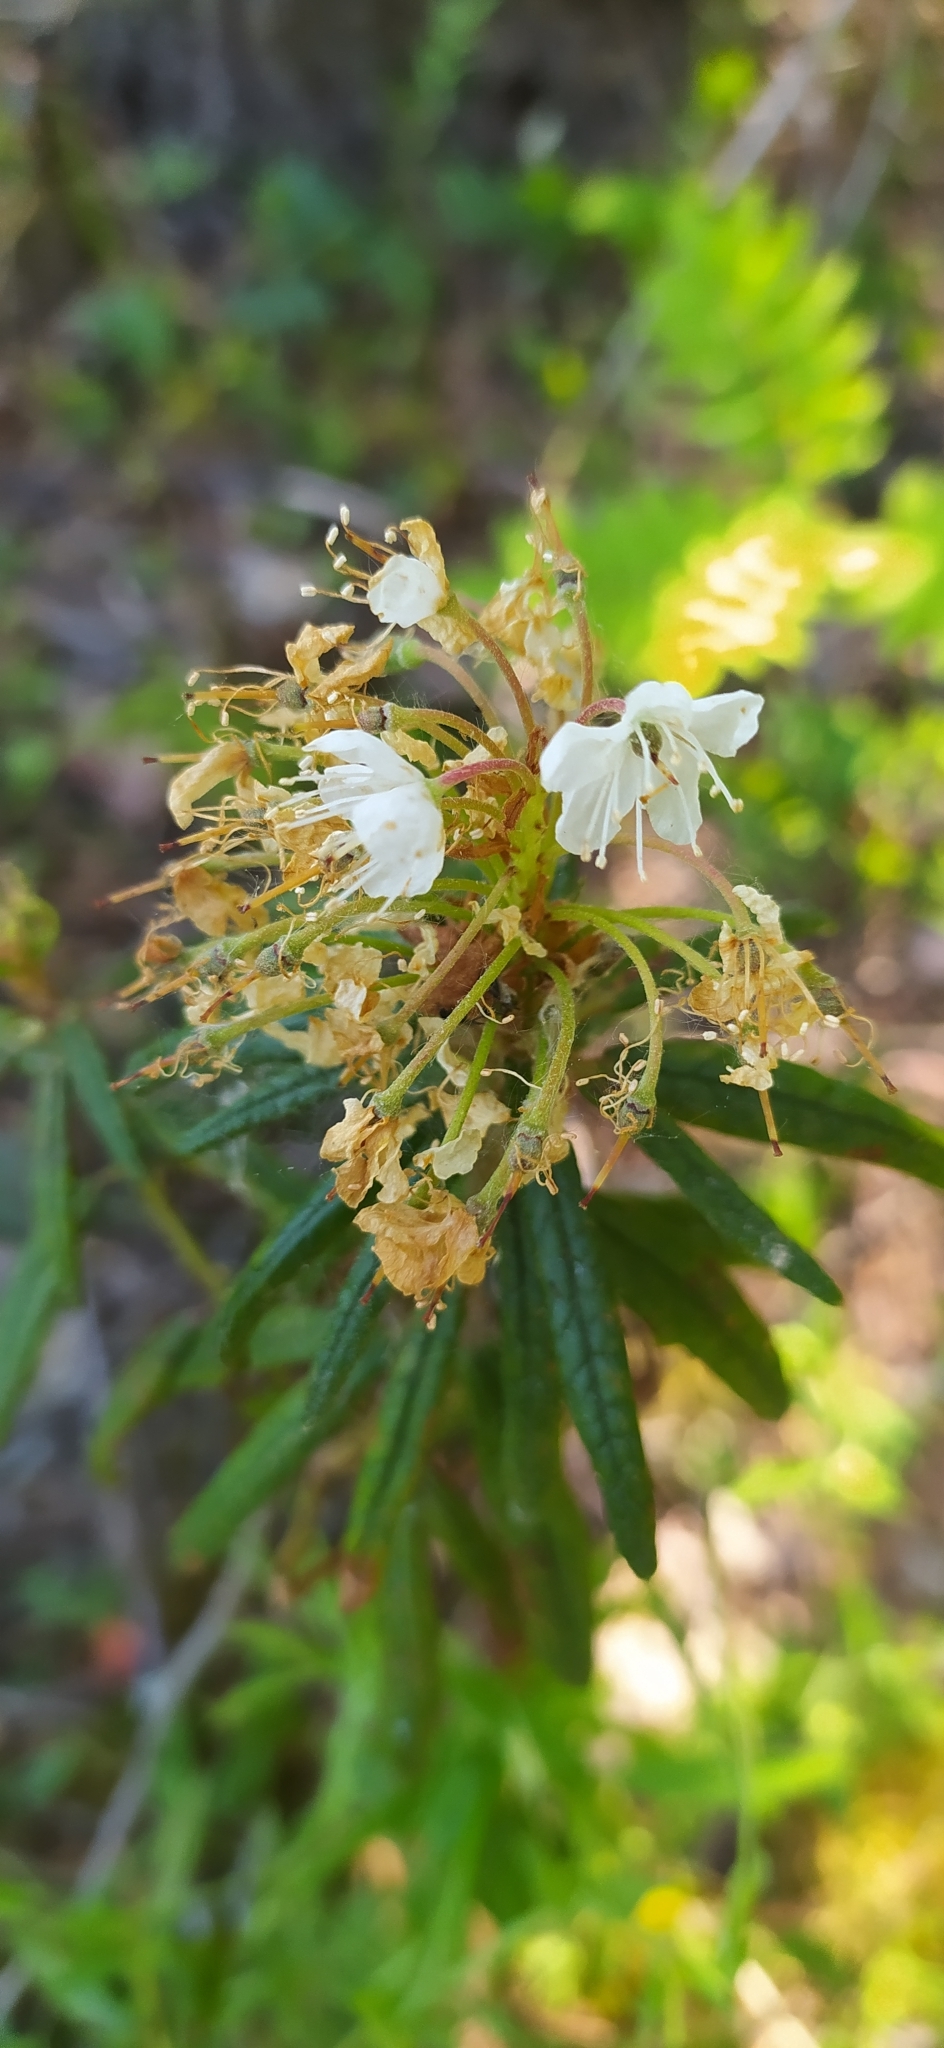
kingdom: Plantae
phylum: Tracheophyta
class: Magnoliopsida
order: Ericales
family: Ericaceae
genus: Rhododendron
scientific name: Rhododendron tomentosum
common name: Marsh labrador tea
